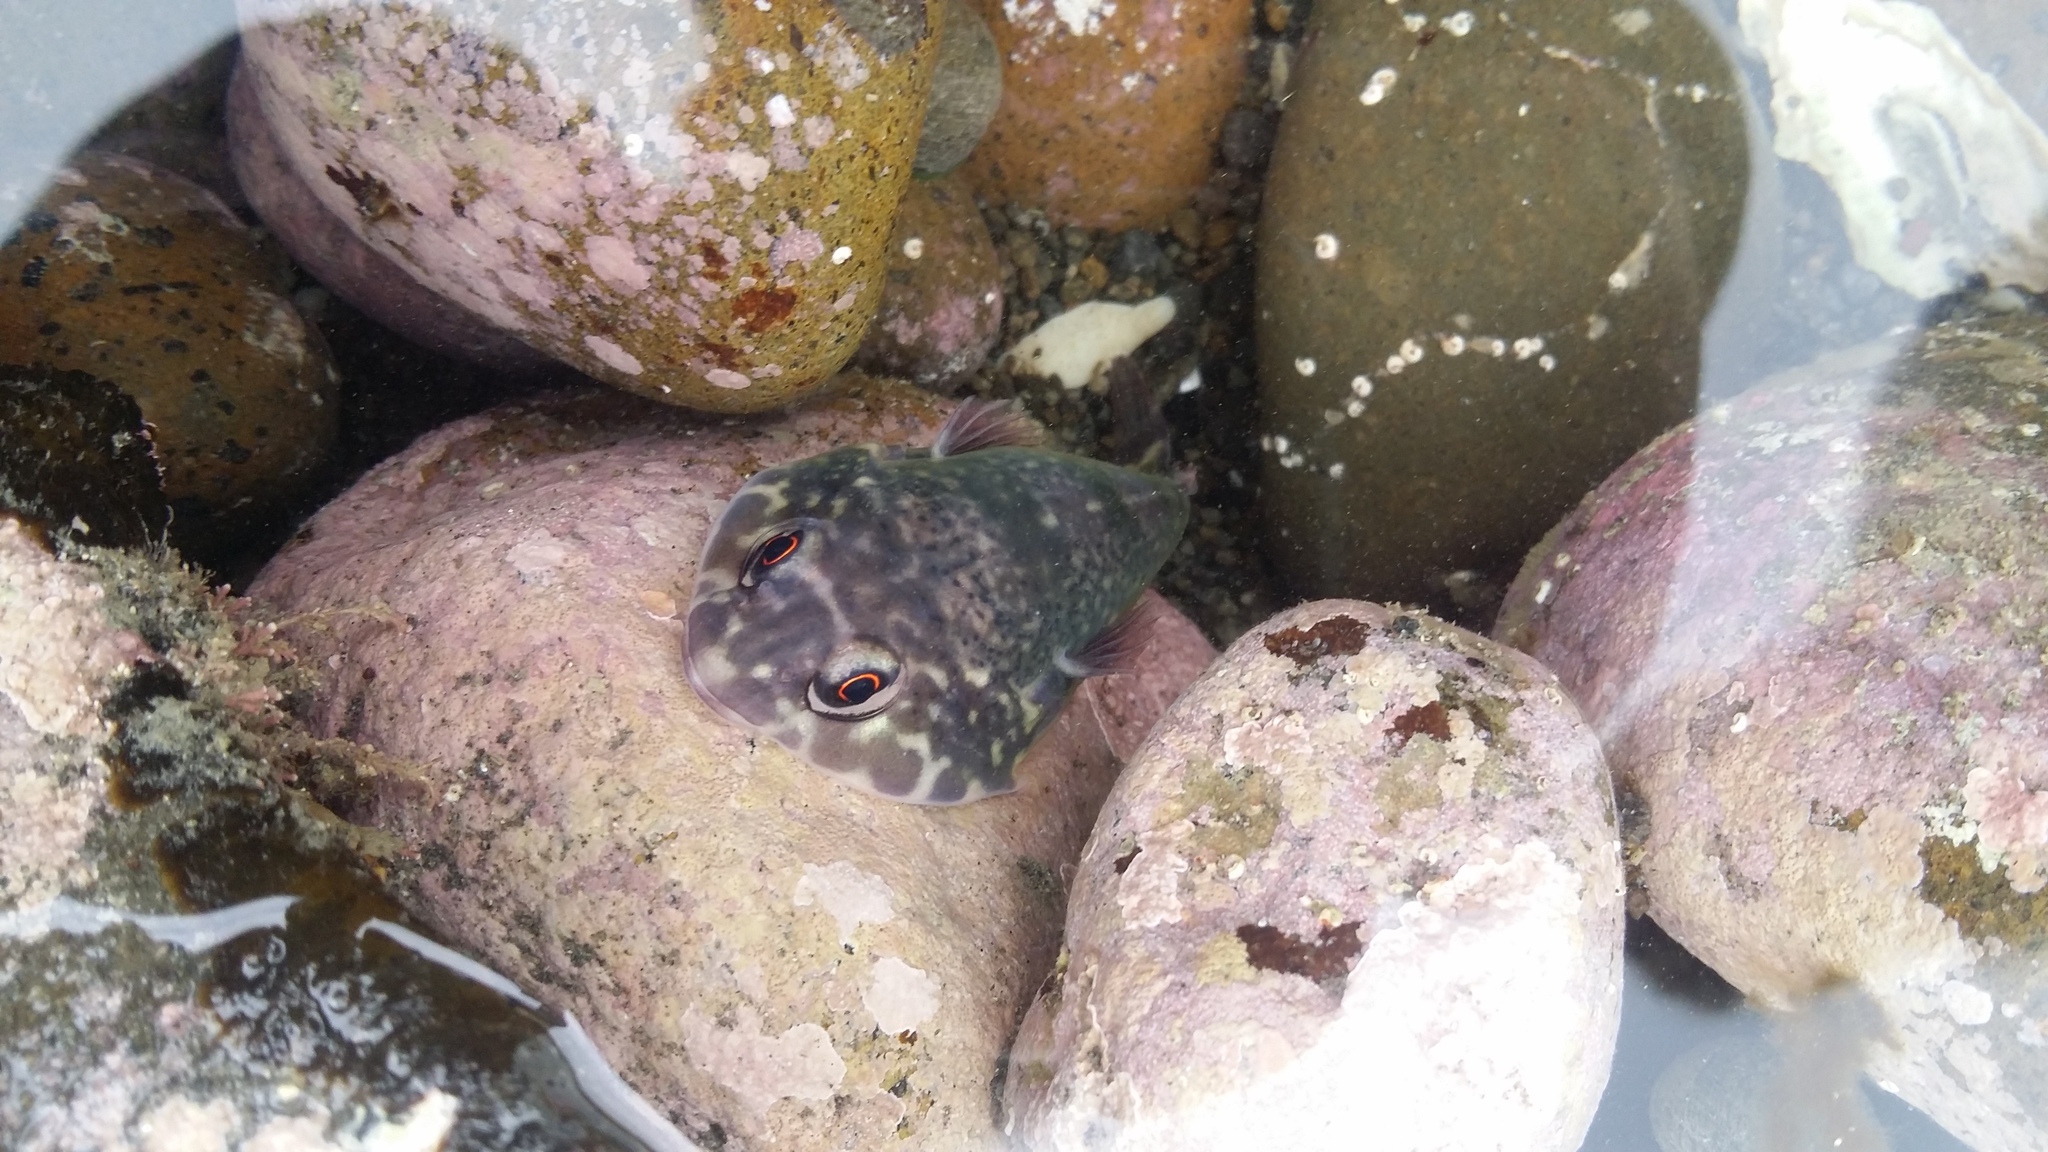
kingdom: Animalia
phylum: Chordata
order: Gobiesociformes
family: Gobiesocidae
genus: Diplocrepis
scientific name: Diplocrepis puniceus
